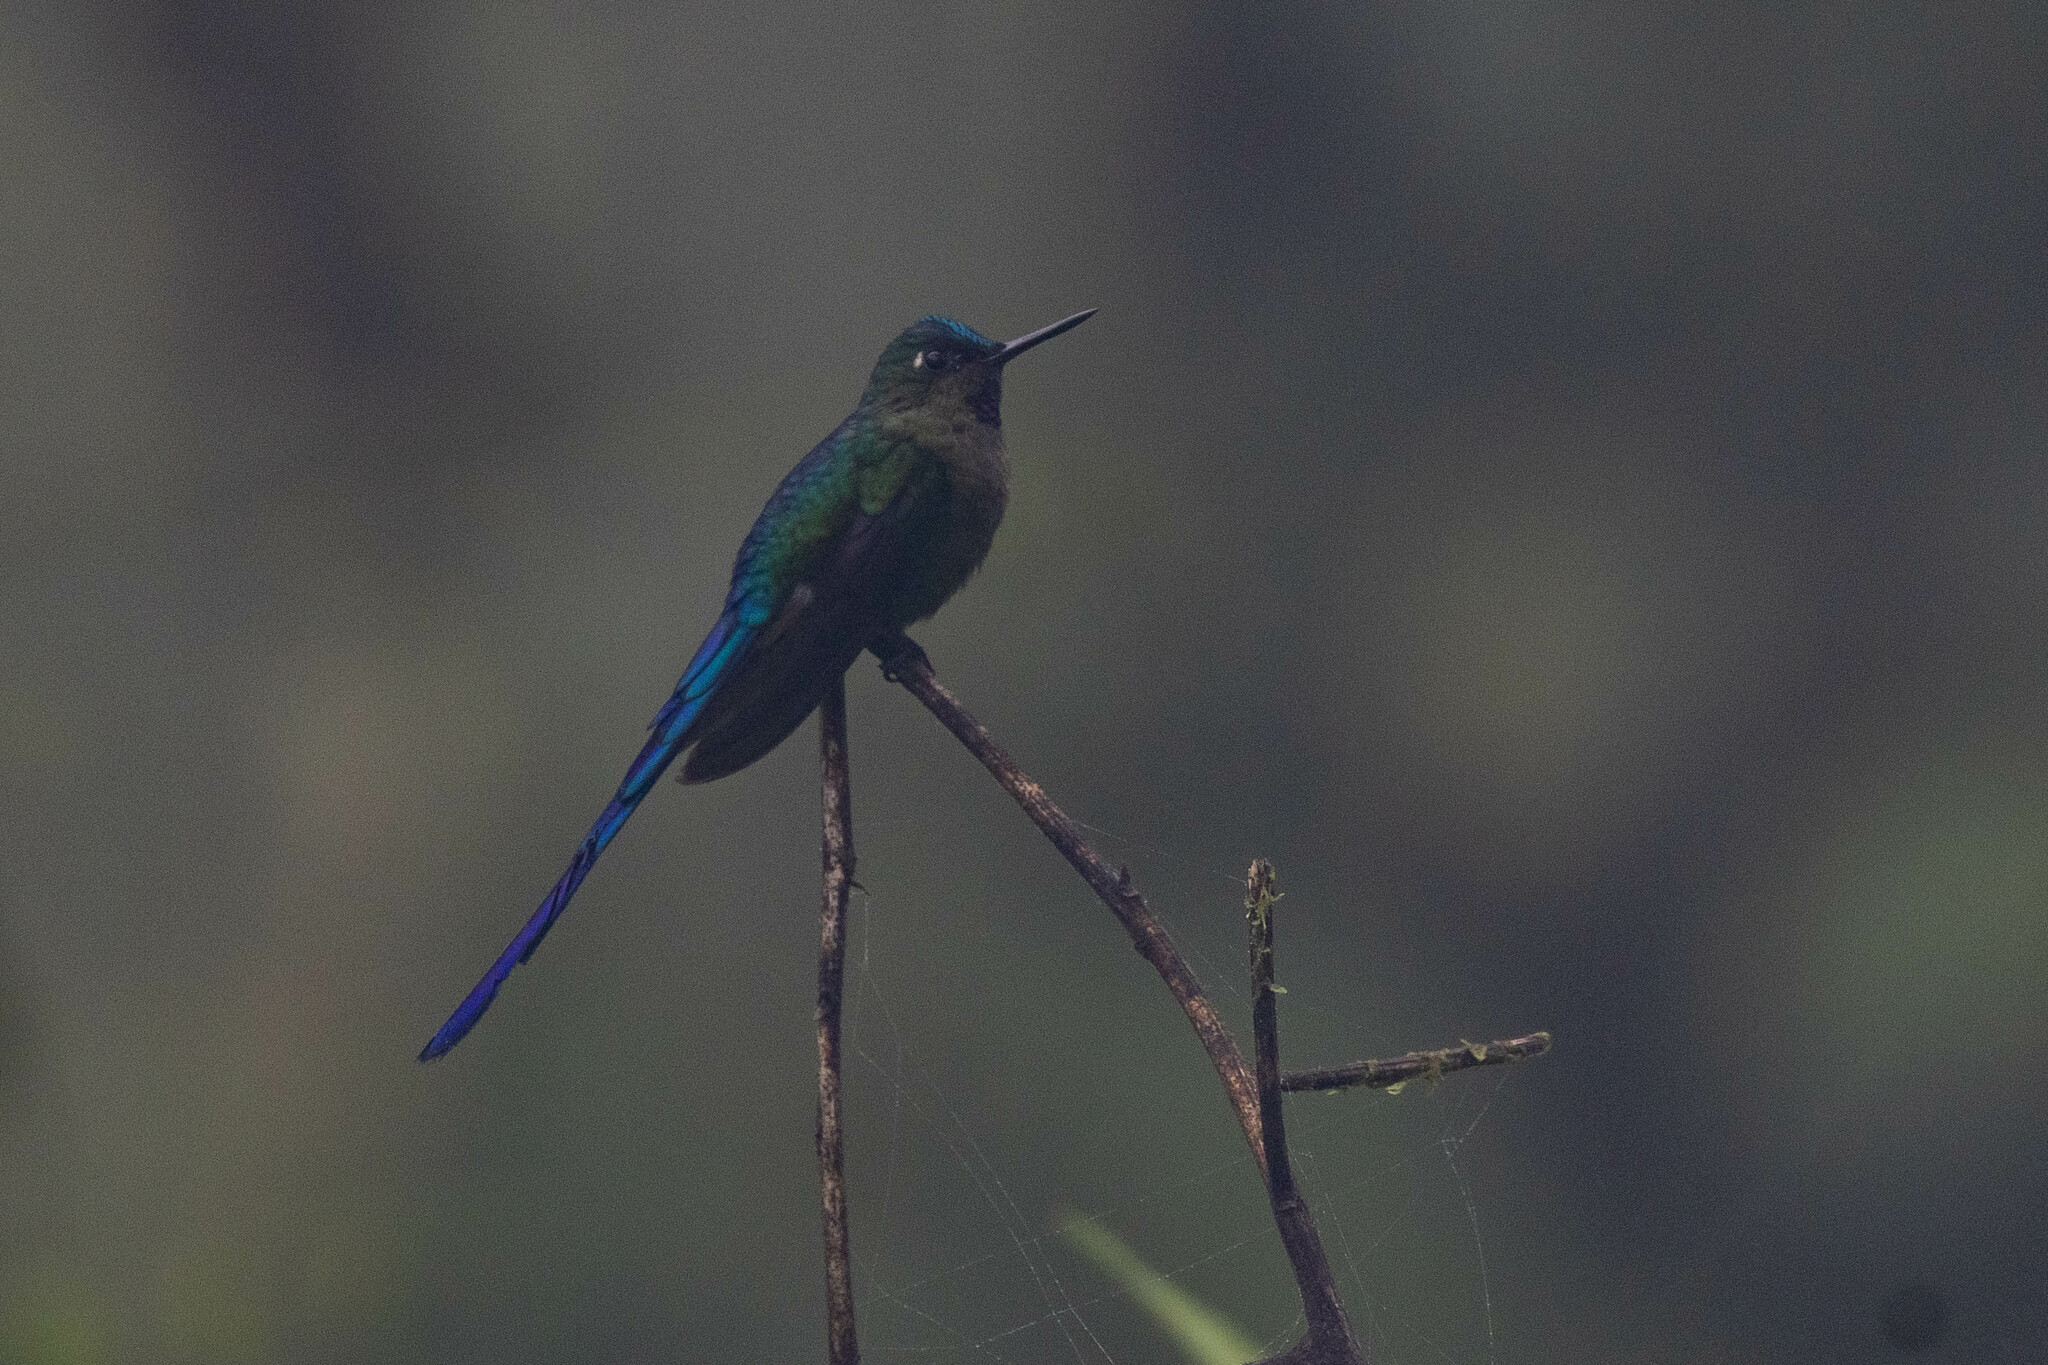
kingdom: Animalia
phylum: Chordata
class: Aves
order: Apodiformes
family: Trochilidae
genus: Aglaiocercus
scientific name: Aglaiocercus coelestis
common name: Violet-tailed sylph
